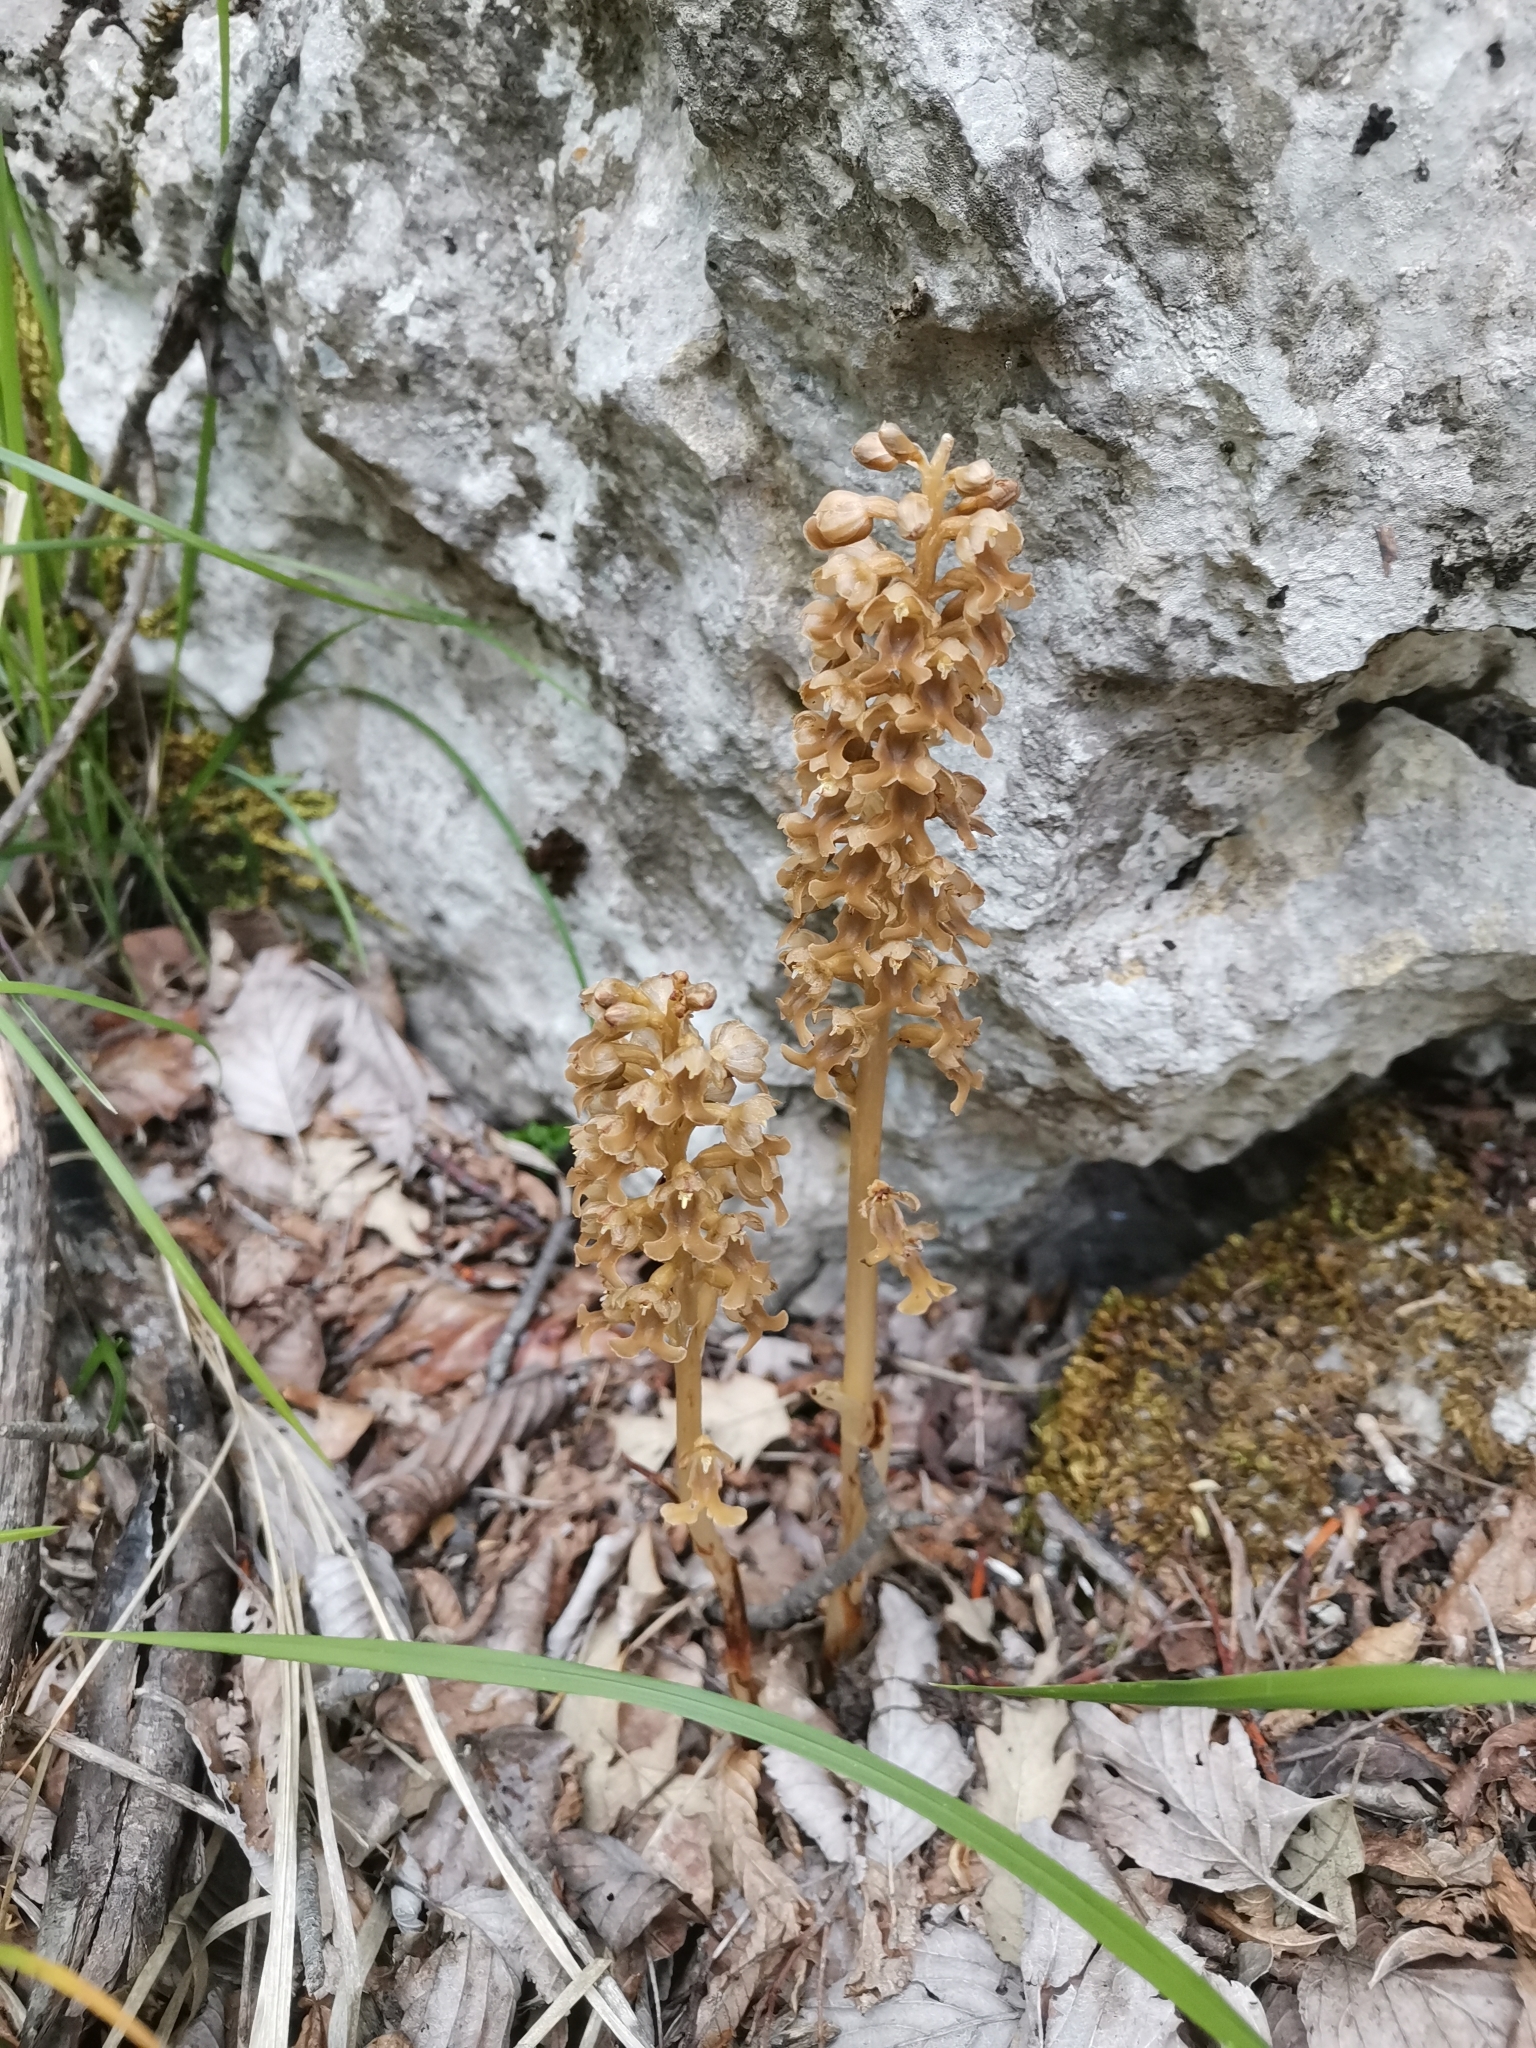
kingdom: Plantae
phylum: Tracheophyta
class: Liliopsida
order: Asparagales
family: Orchidaceae
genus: Neottia
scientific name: Neottia nidus-avis
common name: Bird's-nest orchid
